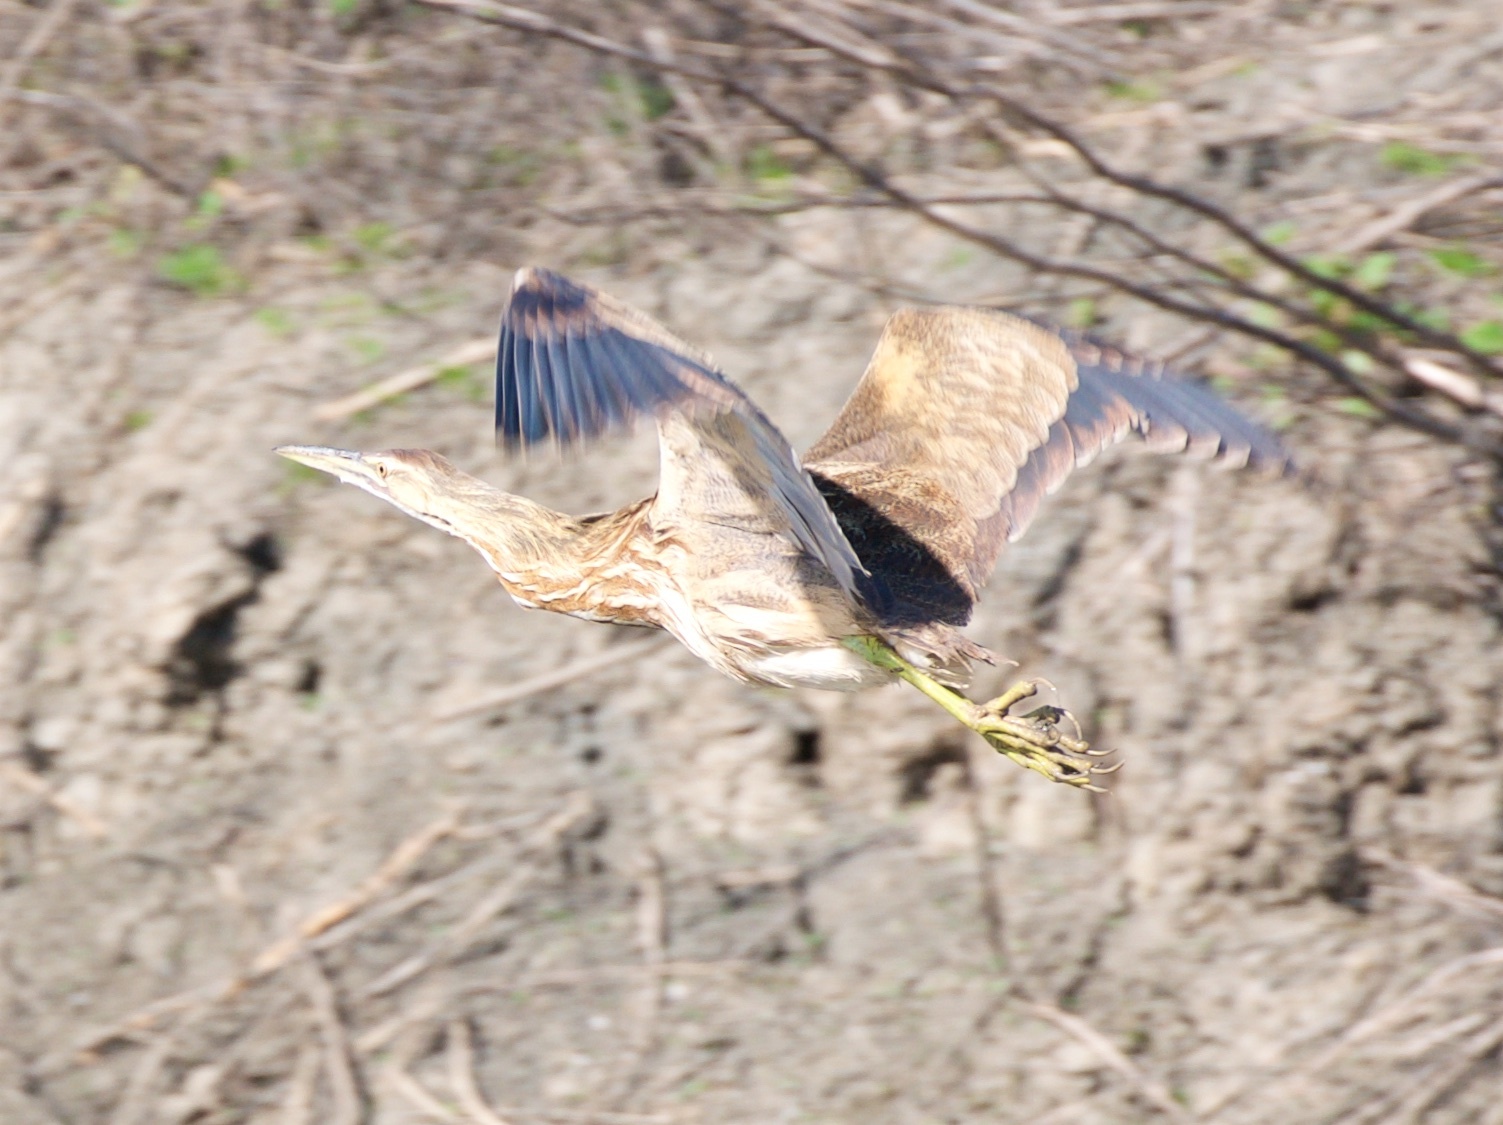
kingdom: Animalia
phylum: Chordata
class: Aves
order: Pelecaniformes
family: Ardeidae
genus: Botaurus
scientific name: Botaurus lentiginosus
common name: American bittern
